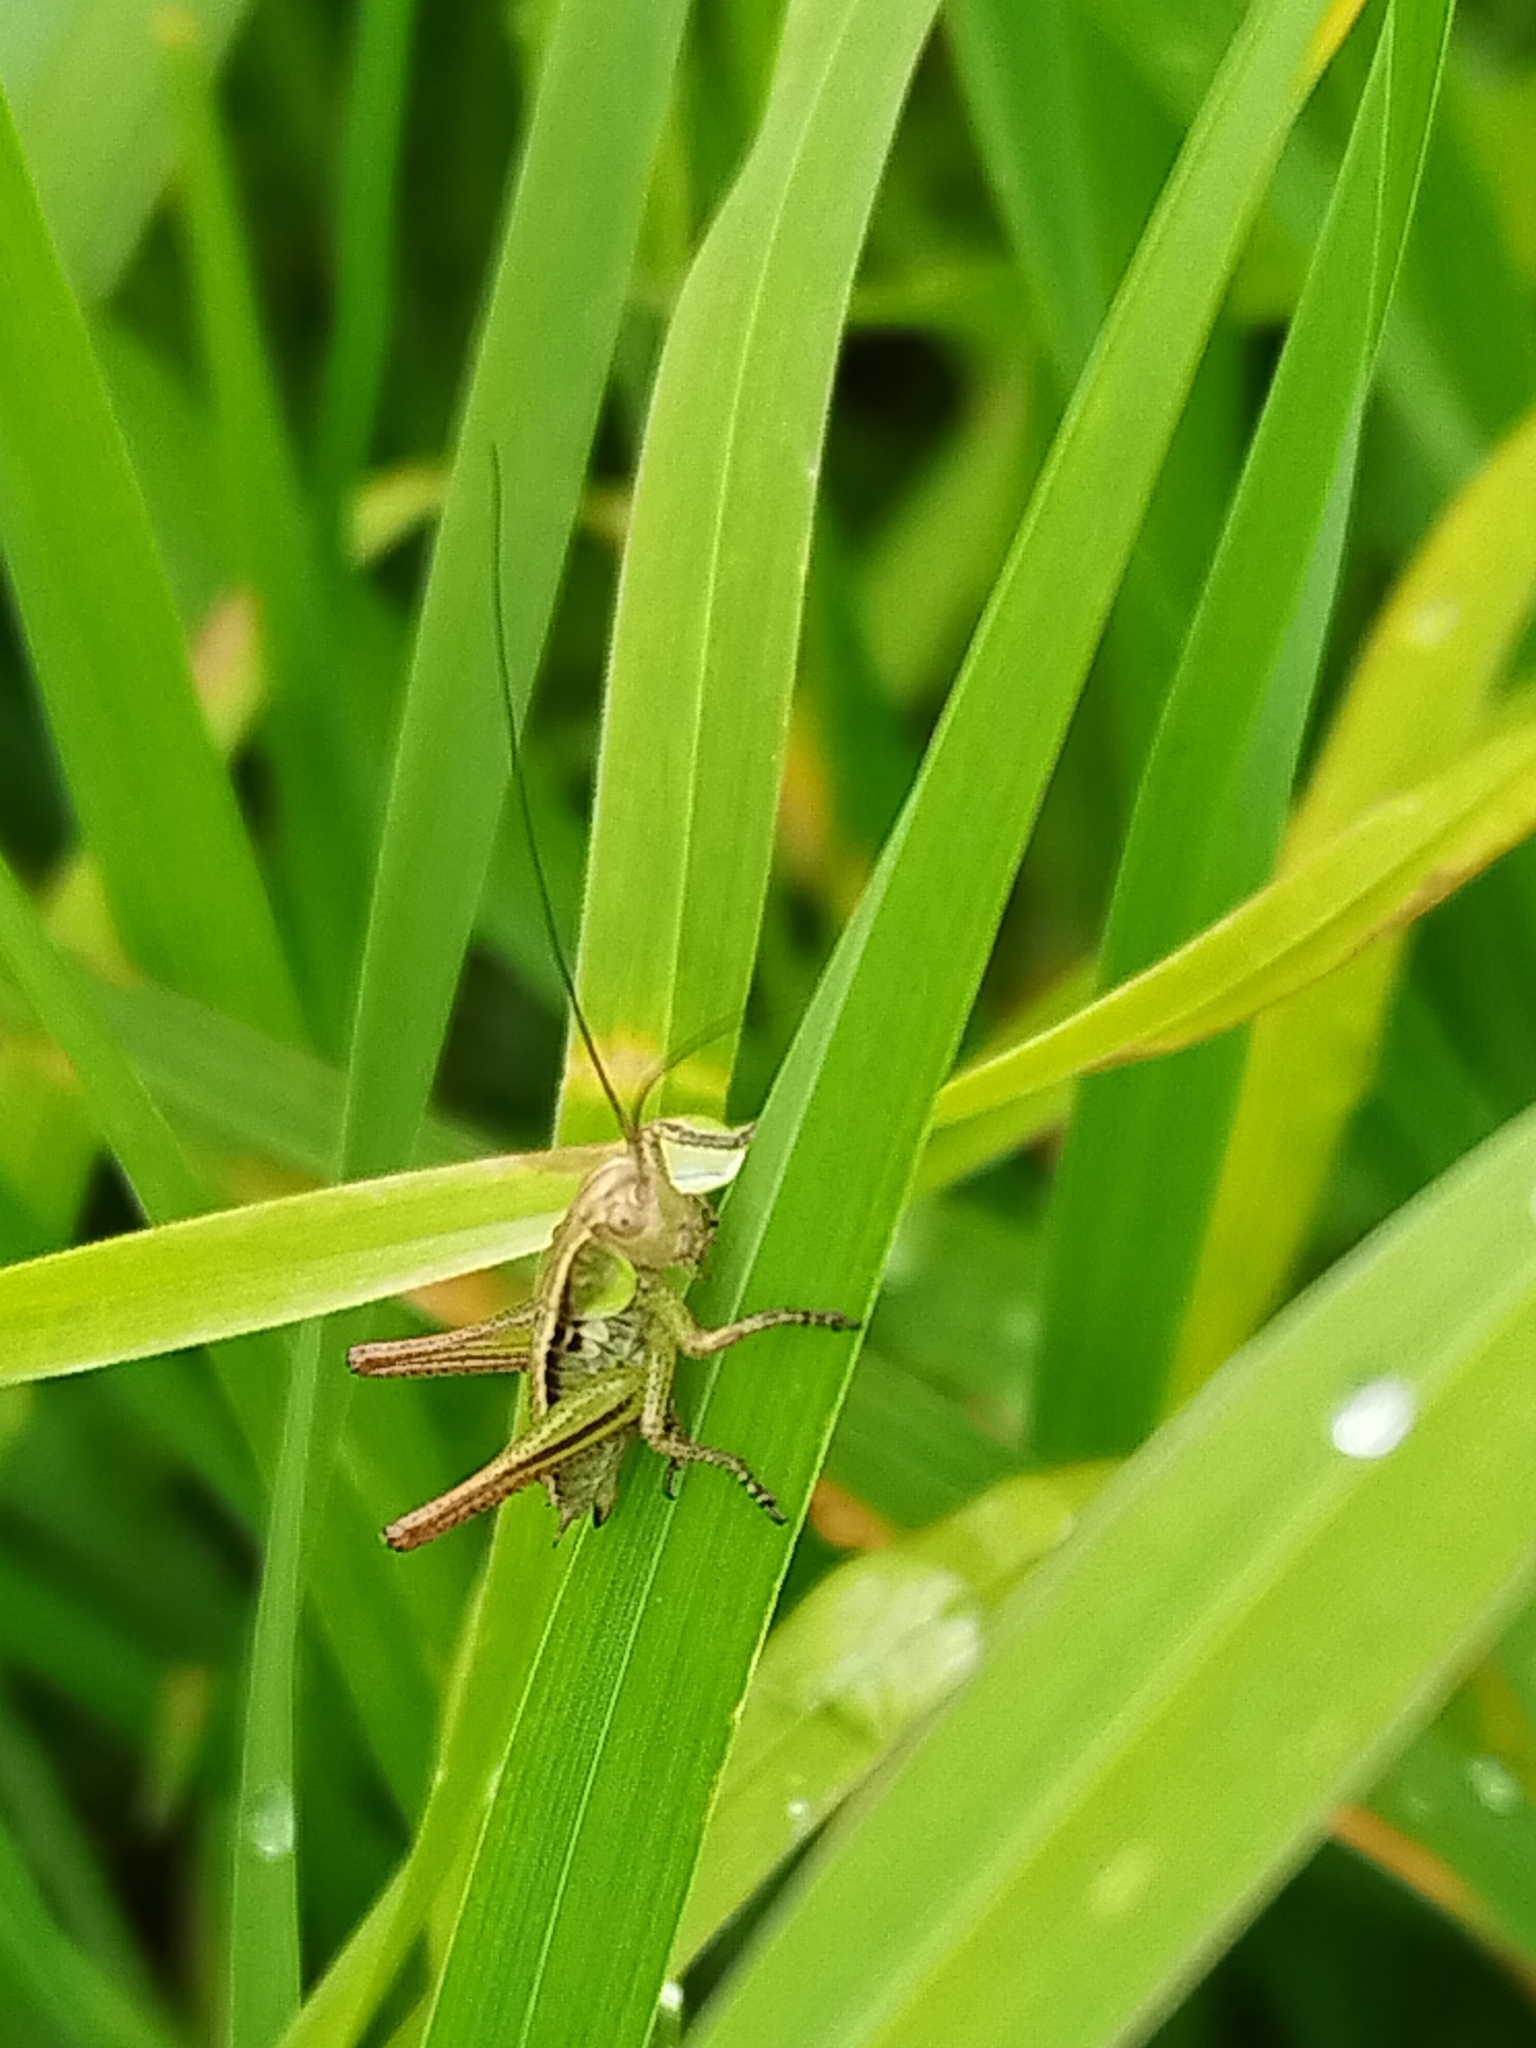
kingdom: Animalia
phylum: Arthropoda
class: Insecta
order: Orthoptera
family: Tettigoniidae
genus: Roeseliana
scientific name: Roeseliana roeselii
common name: Roesel's bush cricket
